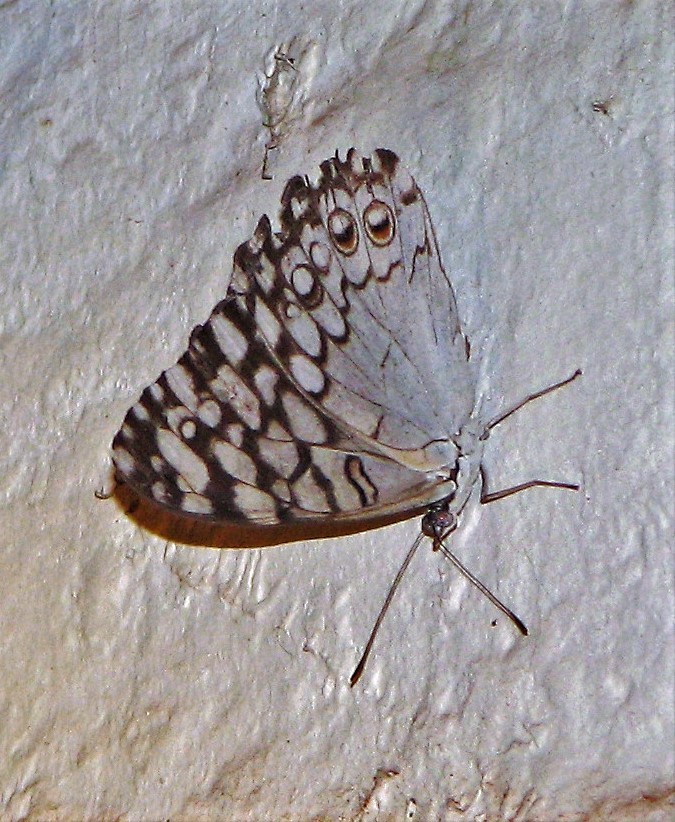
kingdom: Animalia
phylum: Arthropoda
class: Insecta
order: Lepidoptera
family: Nymphalidae
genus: Hamadryas
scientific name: Hamadryas februa
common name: Gray cracker
